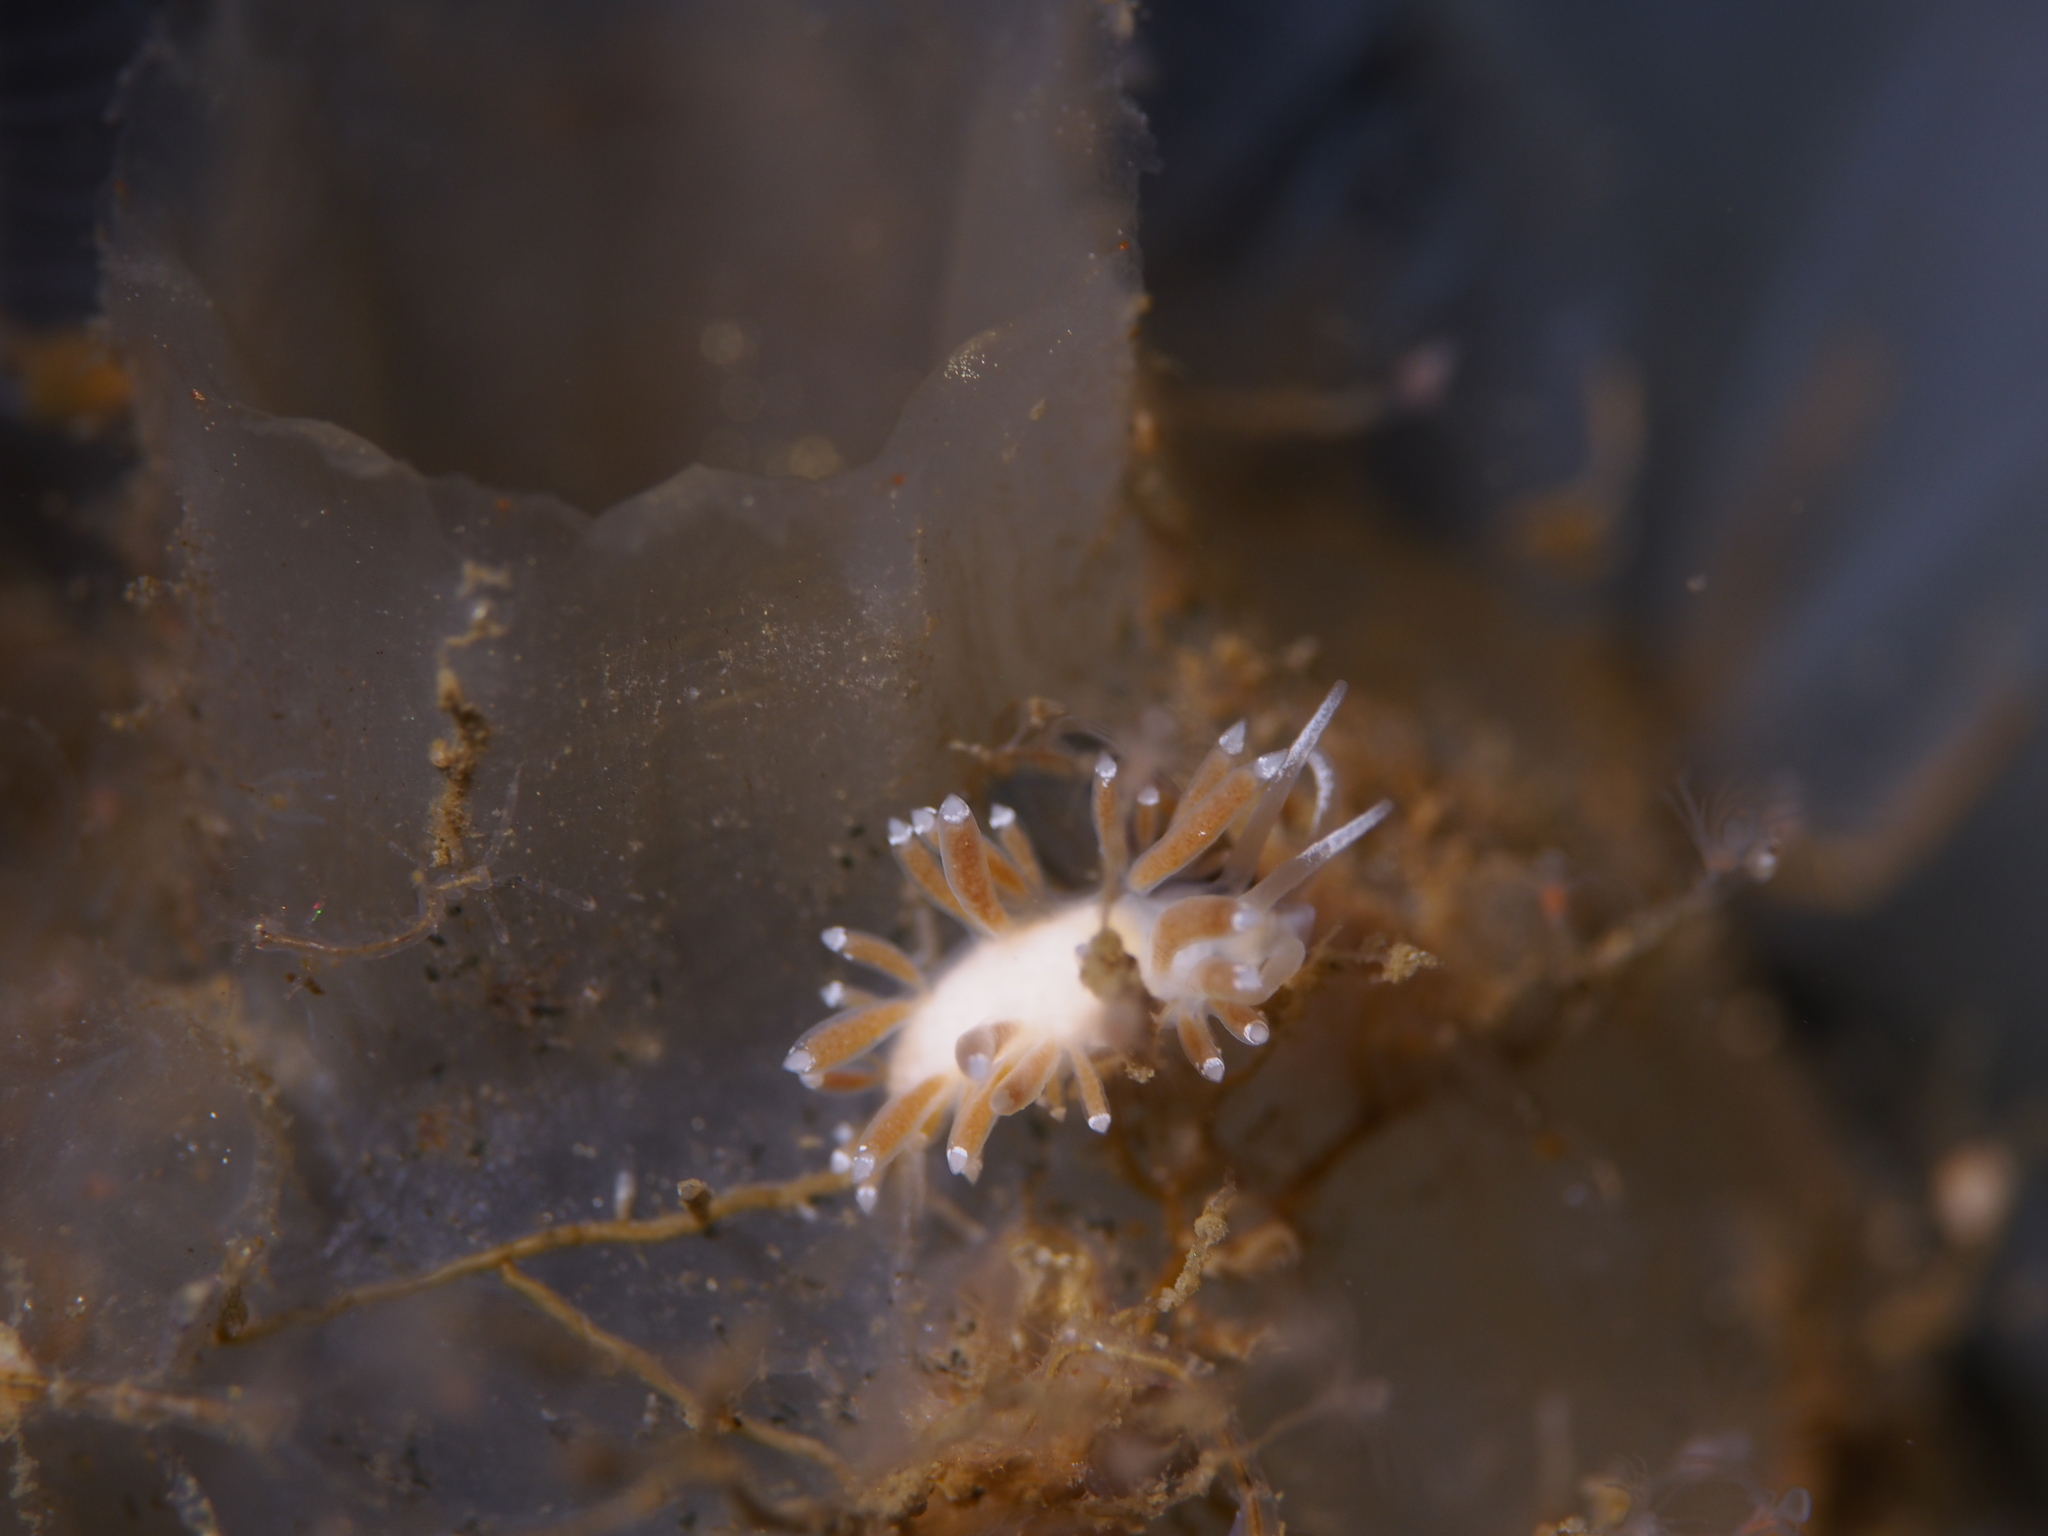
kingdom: Animalia
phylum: Mollusca
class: Gastropoda
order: Nudibranchia
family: Coryphellidae
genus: Coryphella
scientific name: Coryphella gracilis
